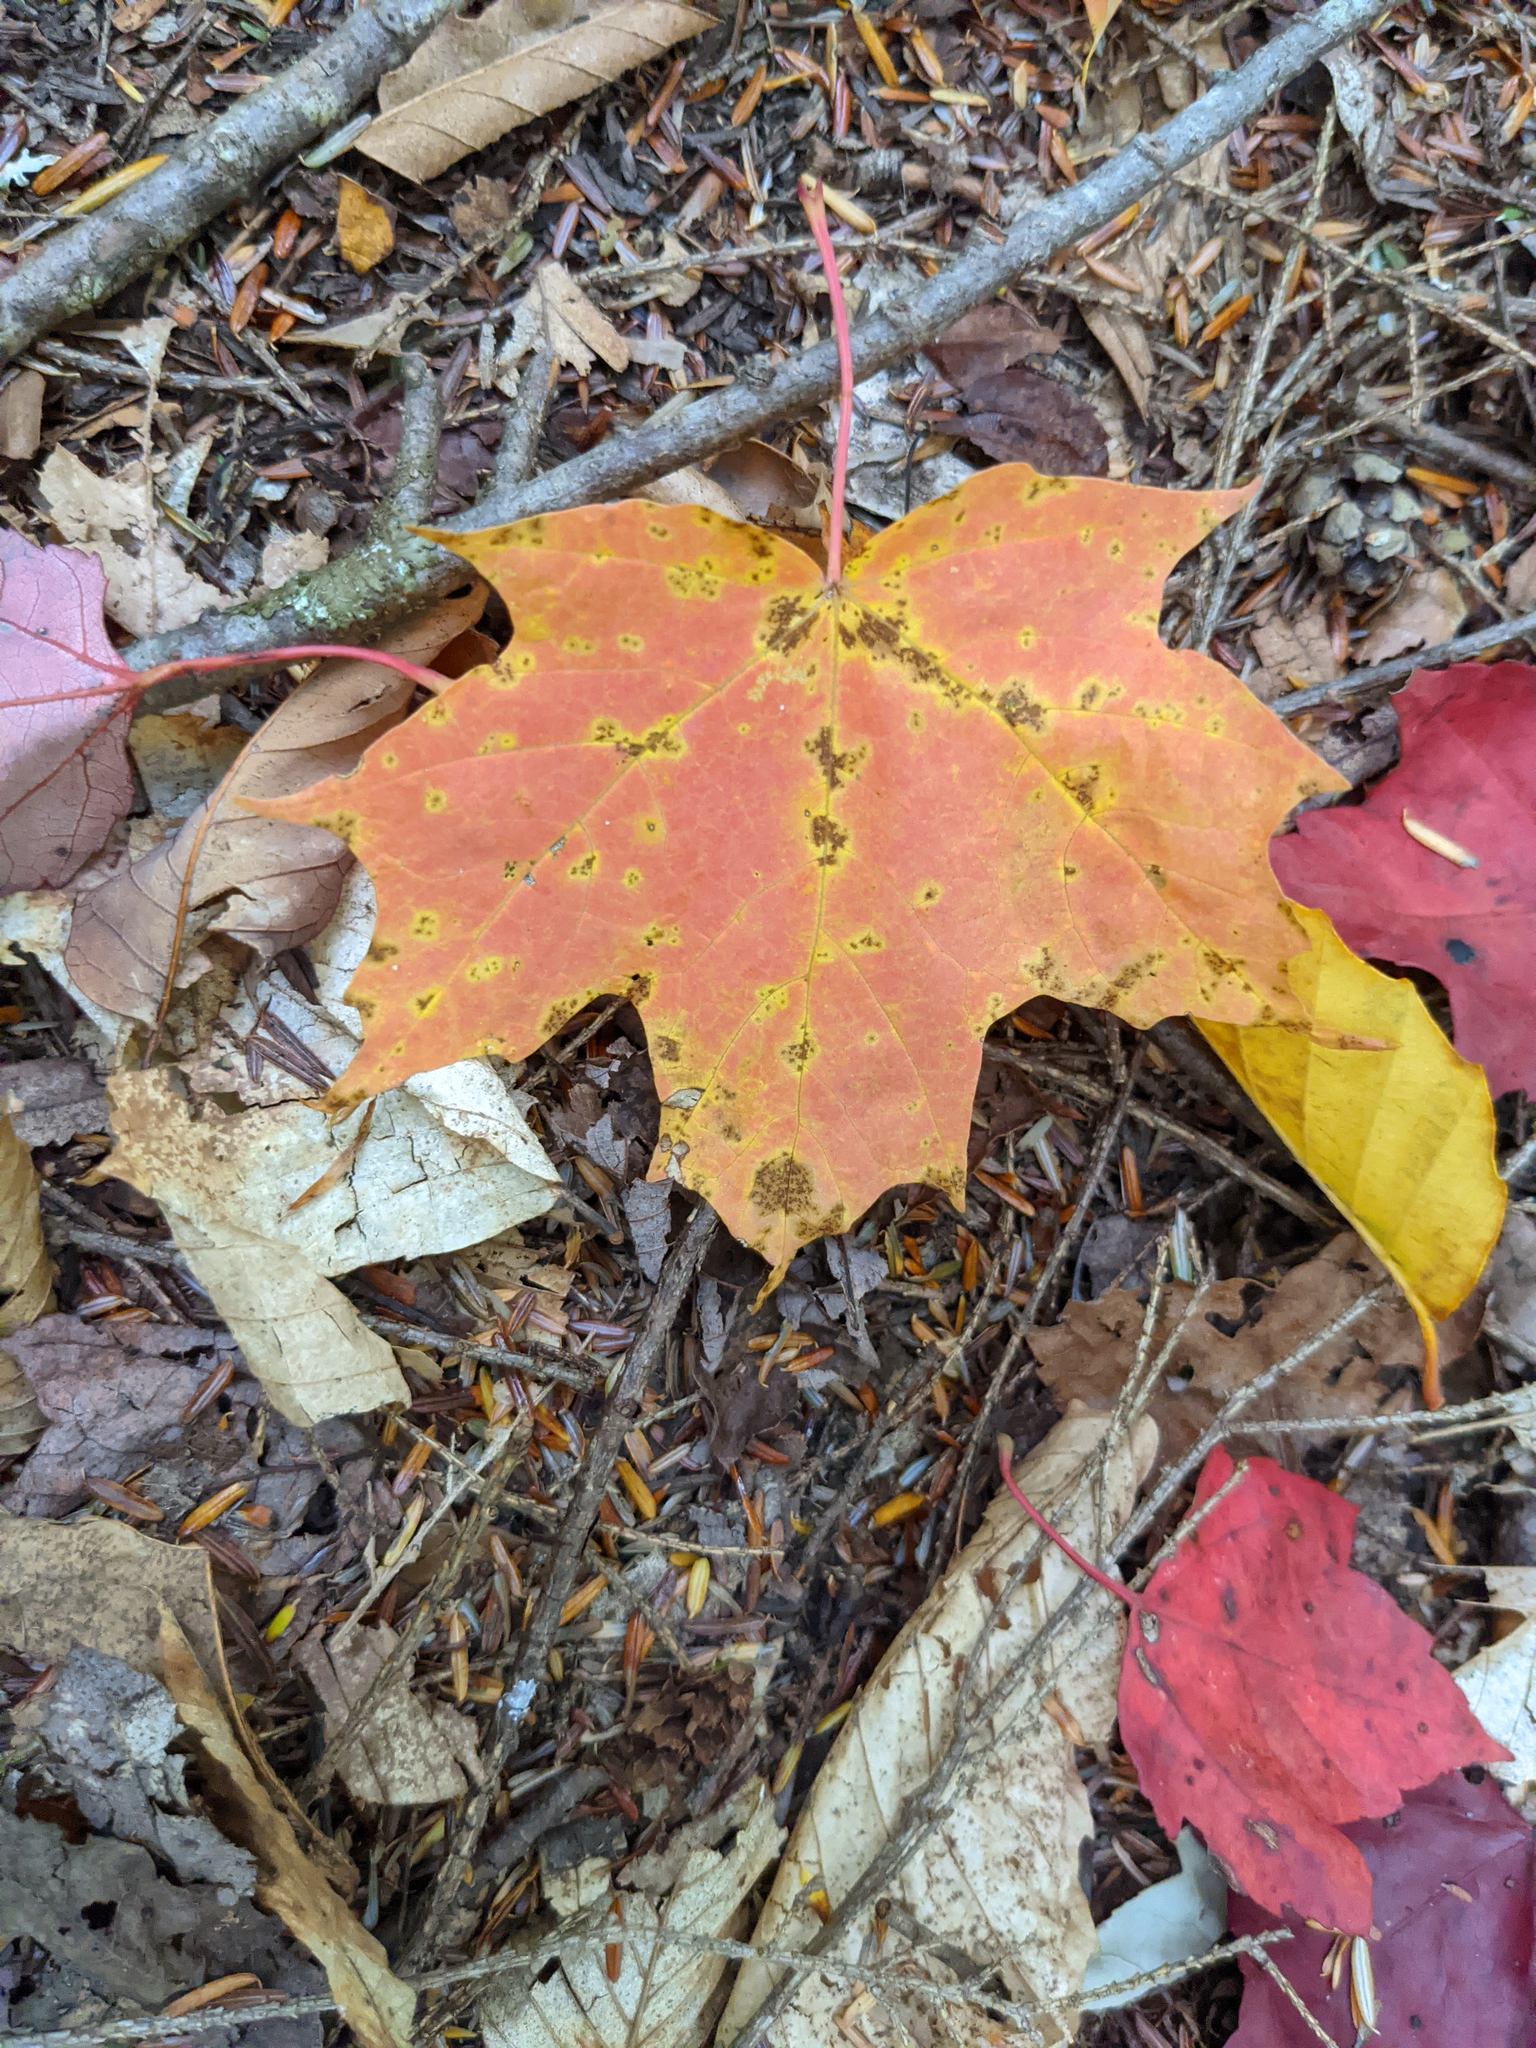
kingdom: Plantae
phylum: Tracheophyta
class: Magnoliopsida
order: Sapindales
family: Sapindaceae
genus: Acer
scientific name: Acer saccharum
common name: Sugar maple
